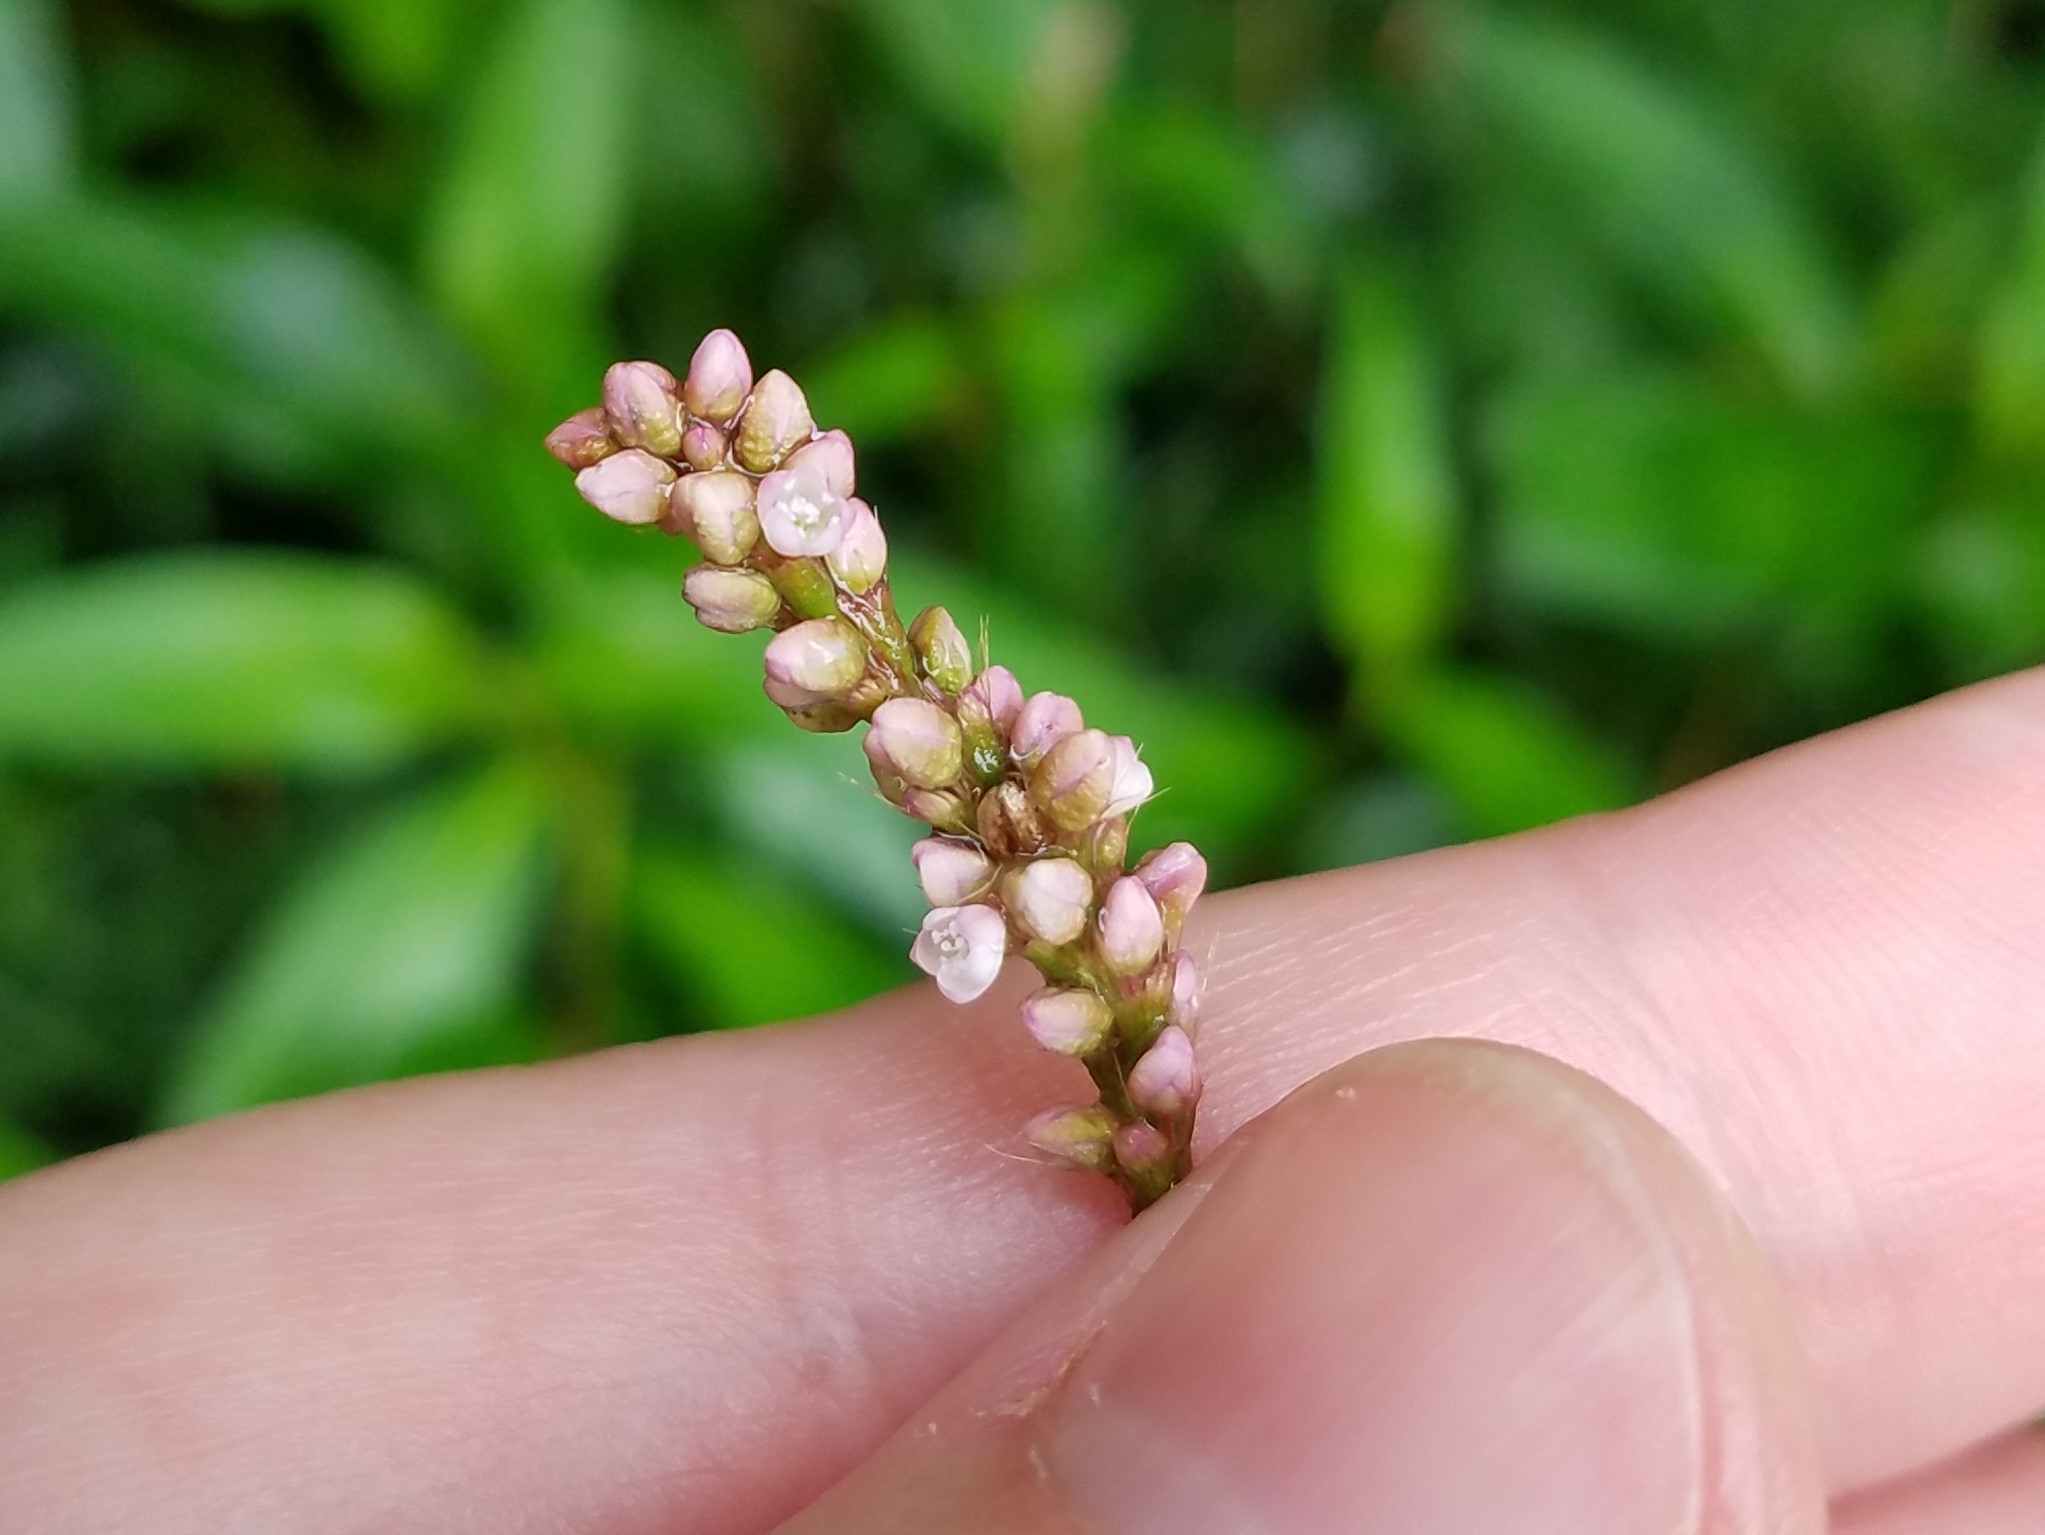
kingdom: Plantae
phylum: Tracheophyta
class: Magnoliopsida
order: Caryophyllales
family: Polygonaceae
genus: Persicaria
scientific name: Persicaria longiseta
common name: Bristly lady's-thumb
